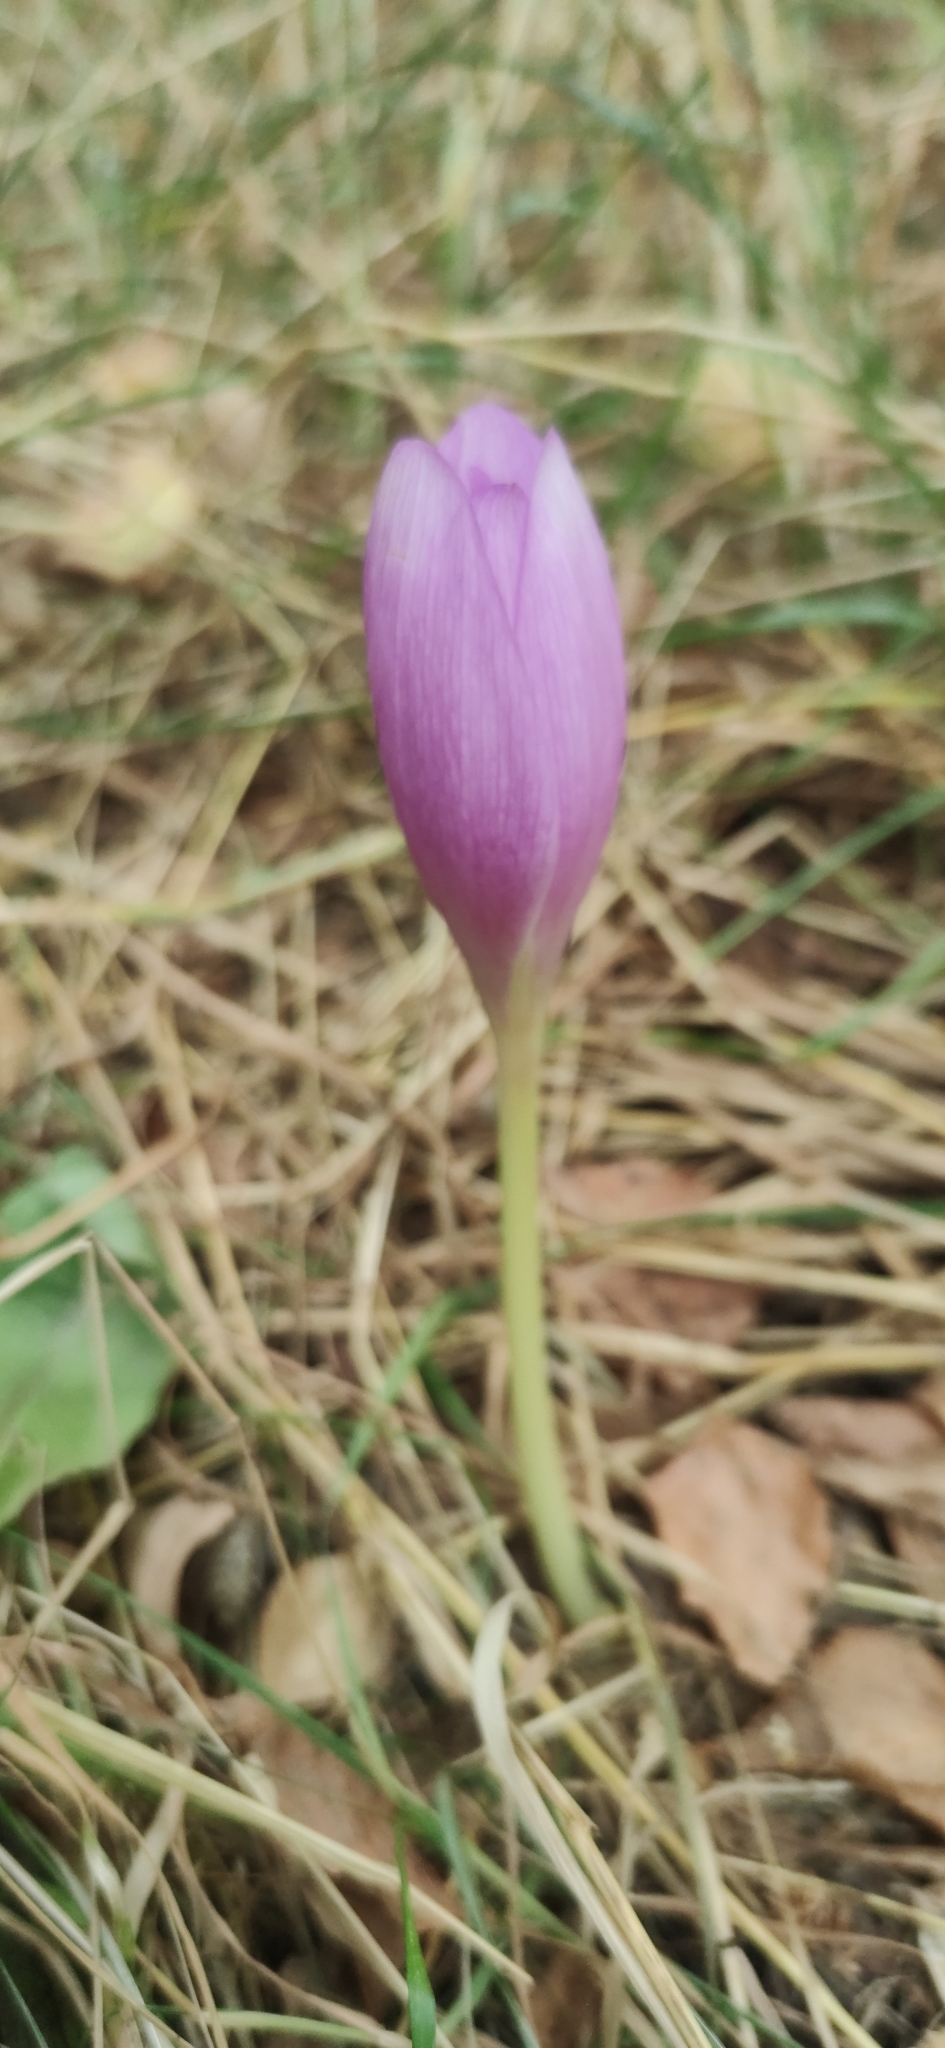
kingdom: Plantae
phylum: Tracheophyta
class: Liliopsida
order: Liliales
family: Colchicaceae
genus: Colchicum
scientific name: Colchicum autumnale
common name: Autumn crocus
